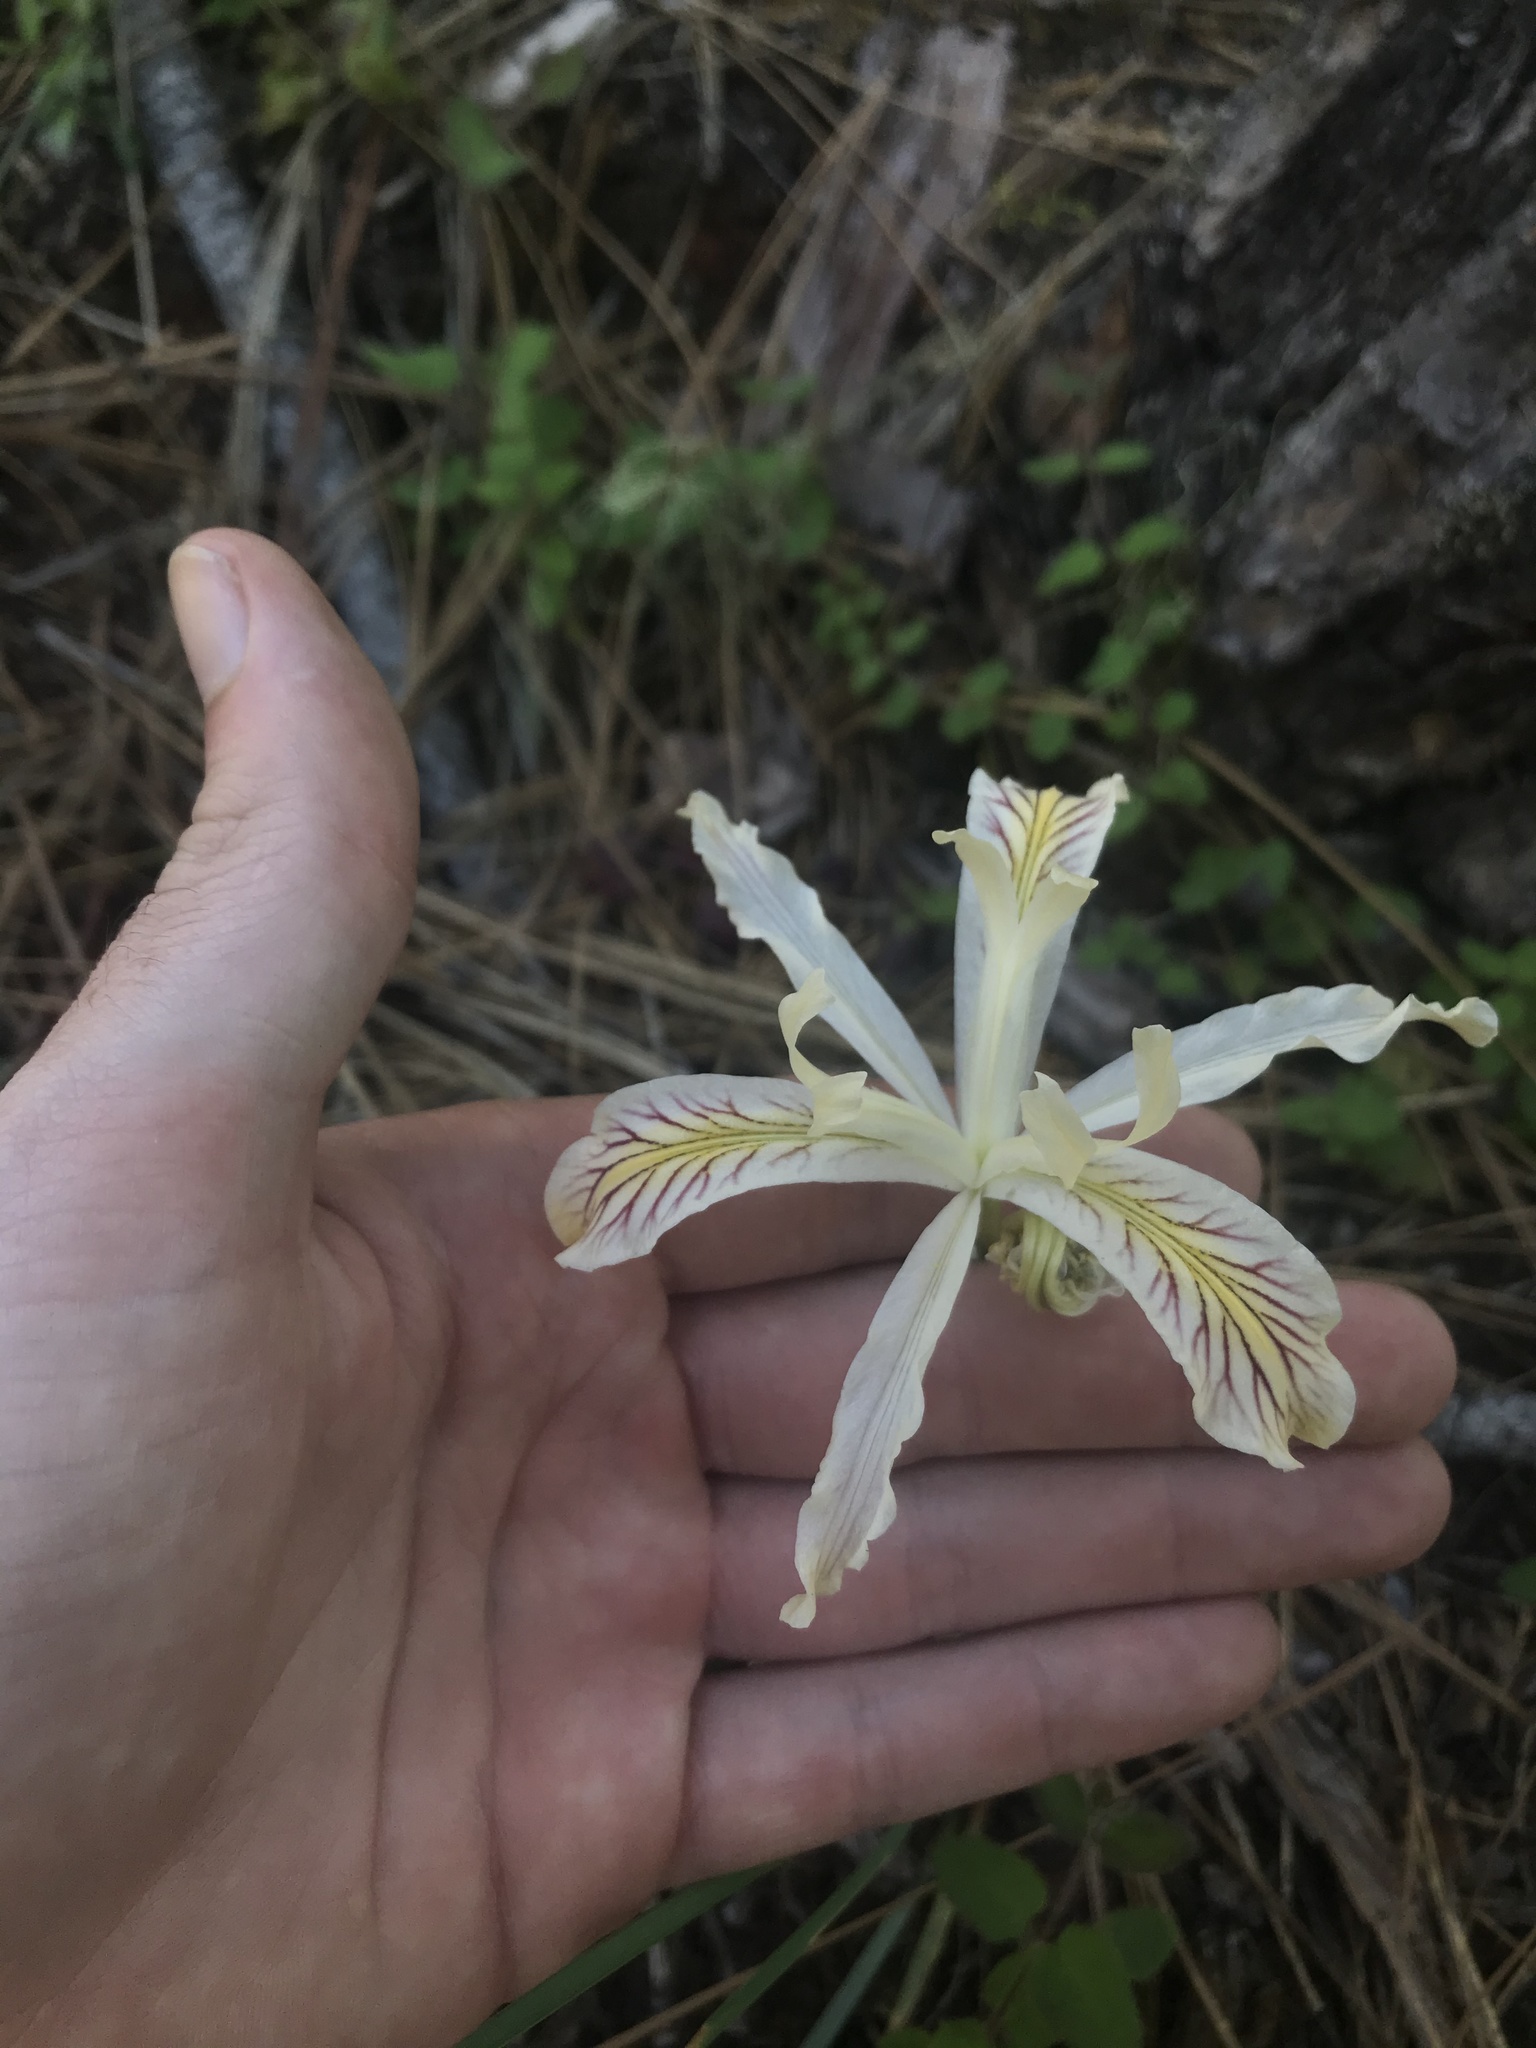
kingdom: Plantae
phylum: Tracheophyta
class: Liliopsida
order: Asparagales
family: Iridaceae
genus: Iris
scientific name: Iris chrysophylla
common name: Yellow-leaf iris
